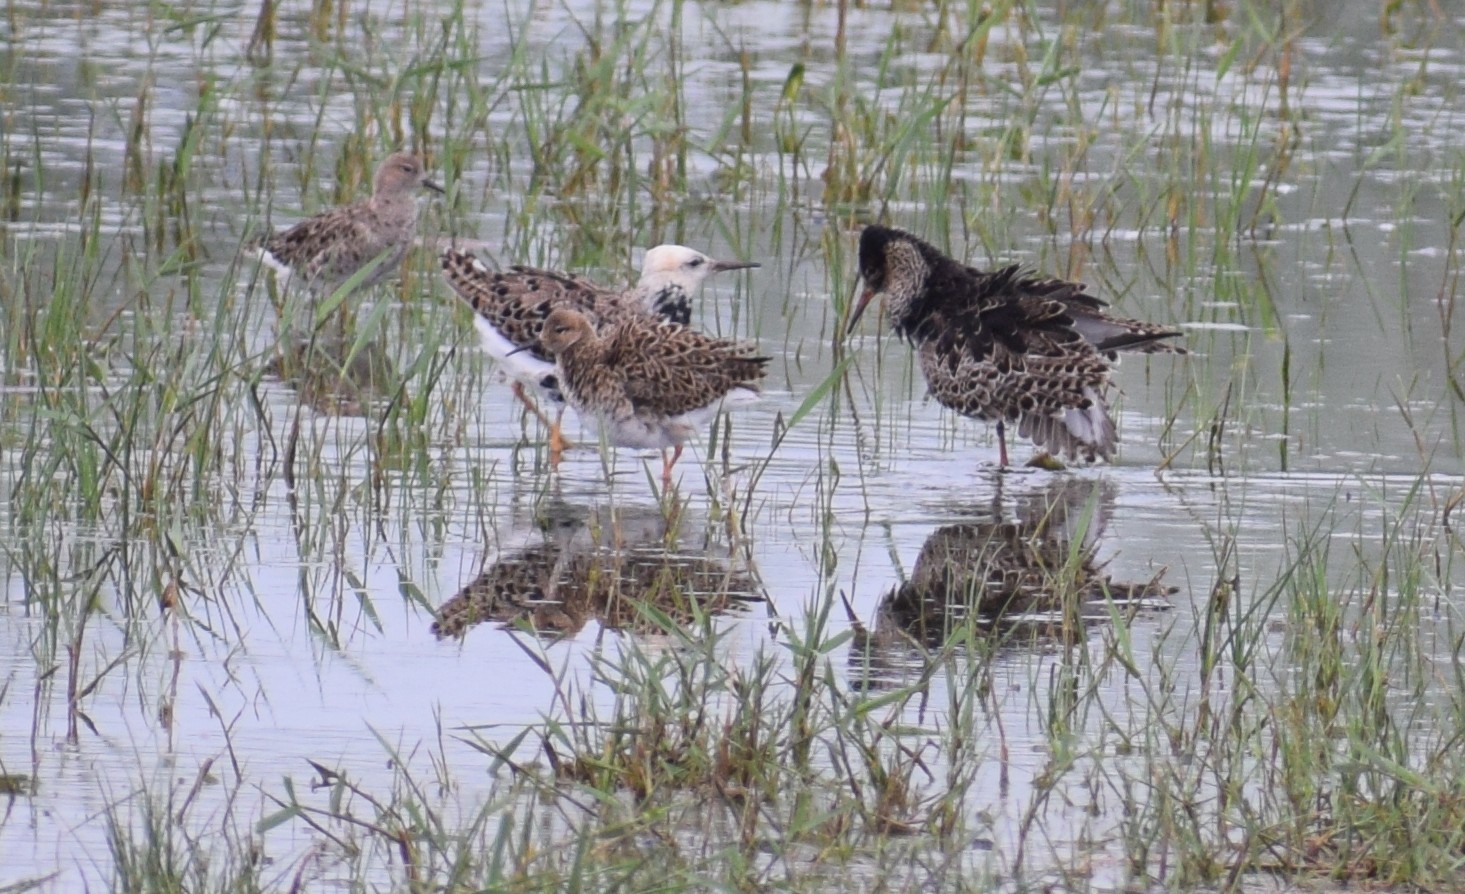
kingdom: Animalia
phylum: Chordata
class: Aves
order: Charadriiformes
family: Scolopacidae
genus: Calidris
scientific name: Calidris pugnax
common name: Ruff
